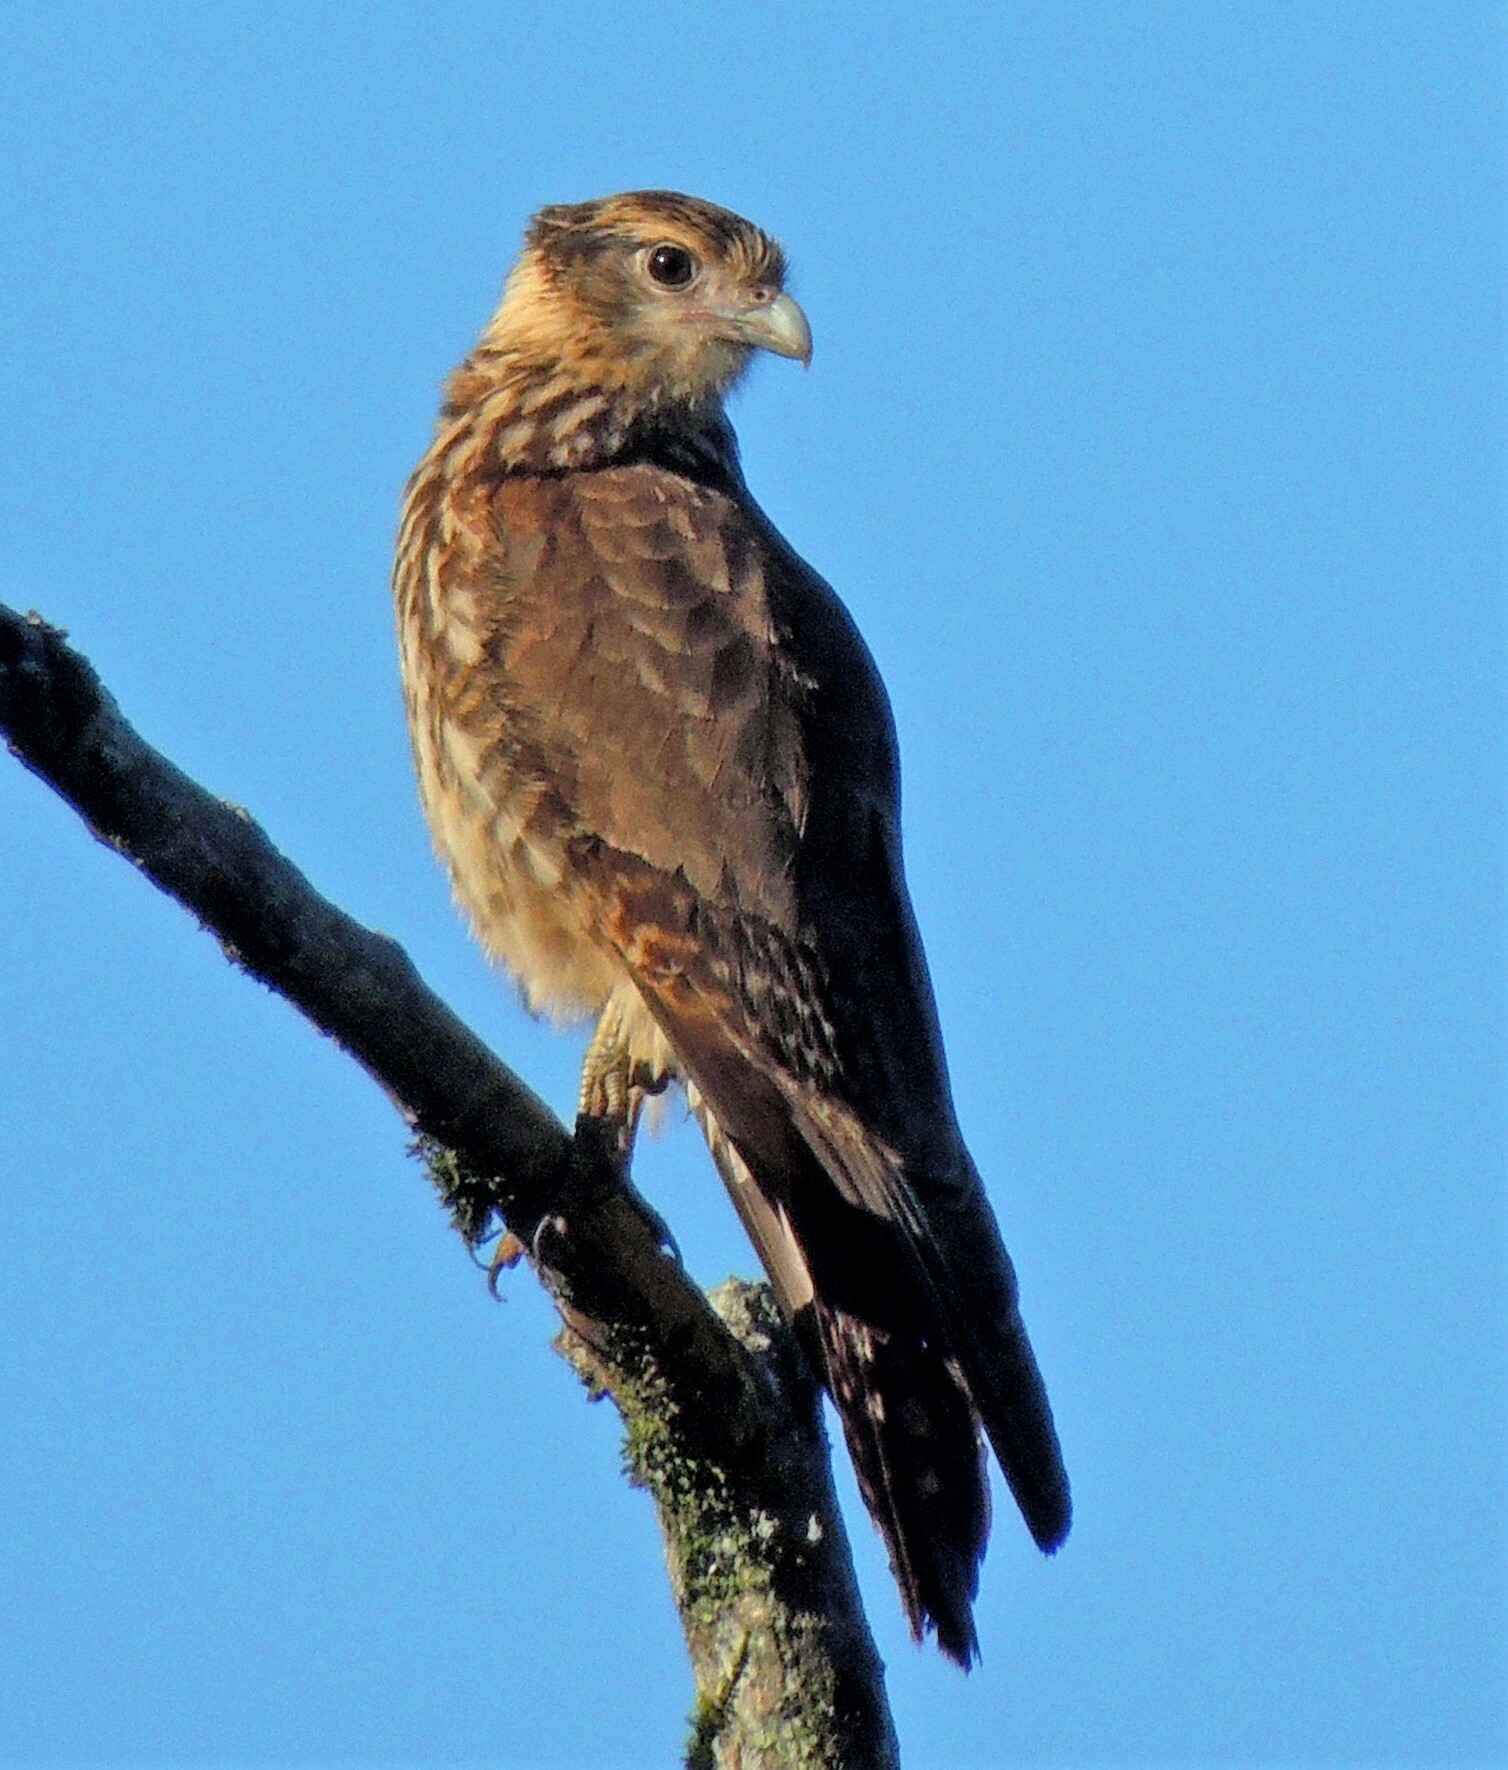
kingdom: Animalia
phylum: Chordata
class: Aves
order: Falconiformes
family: Falconidae
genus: Daptrius
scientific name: Daptrius
